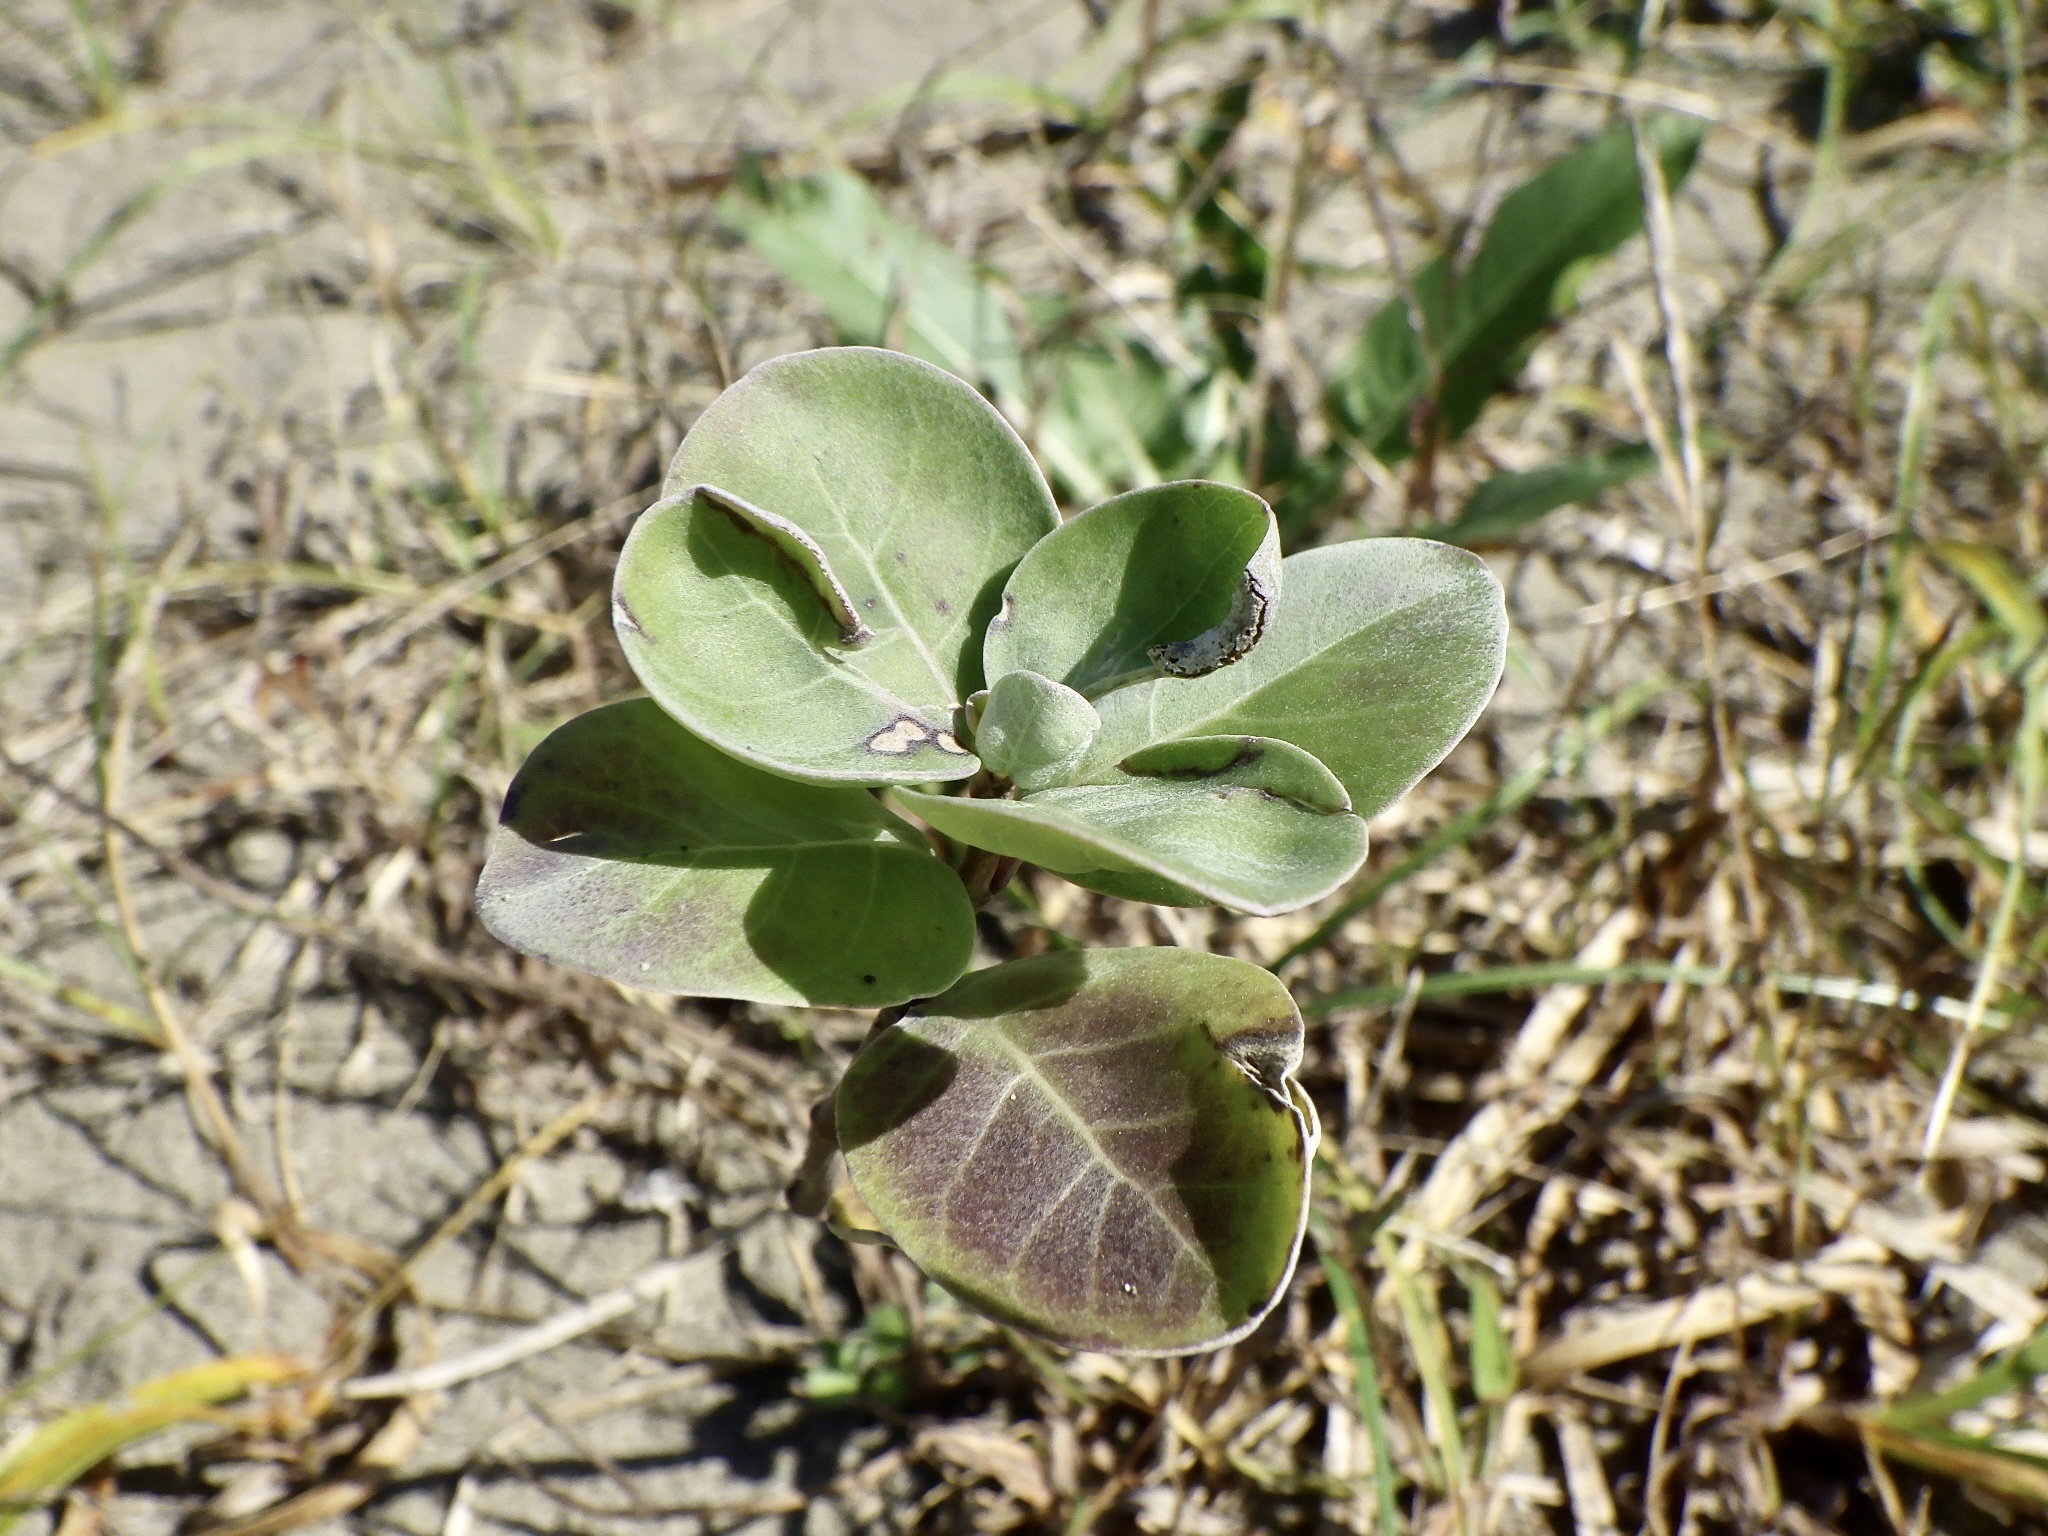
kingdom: Plantae
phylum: Tracheophyta
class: Magnoliopsida
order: Lamiales
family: Lamiaceae
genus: Vitex
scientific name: Vitex rotundifolia
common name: Beach vitex
